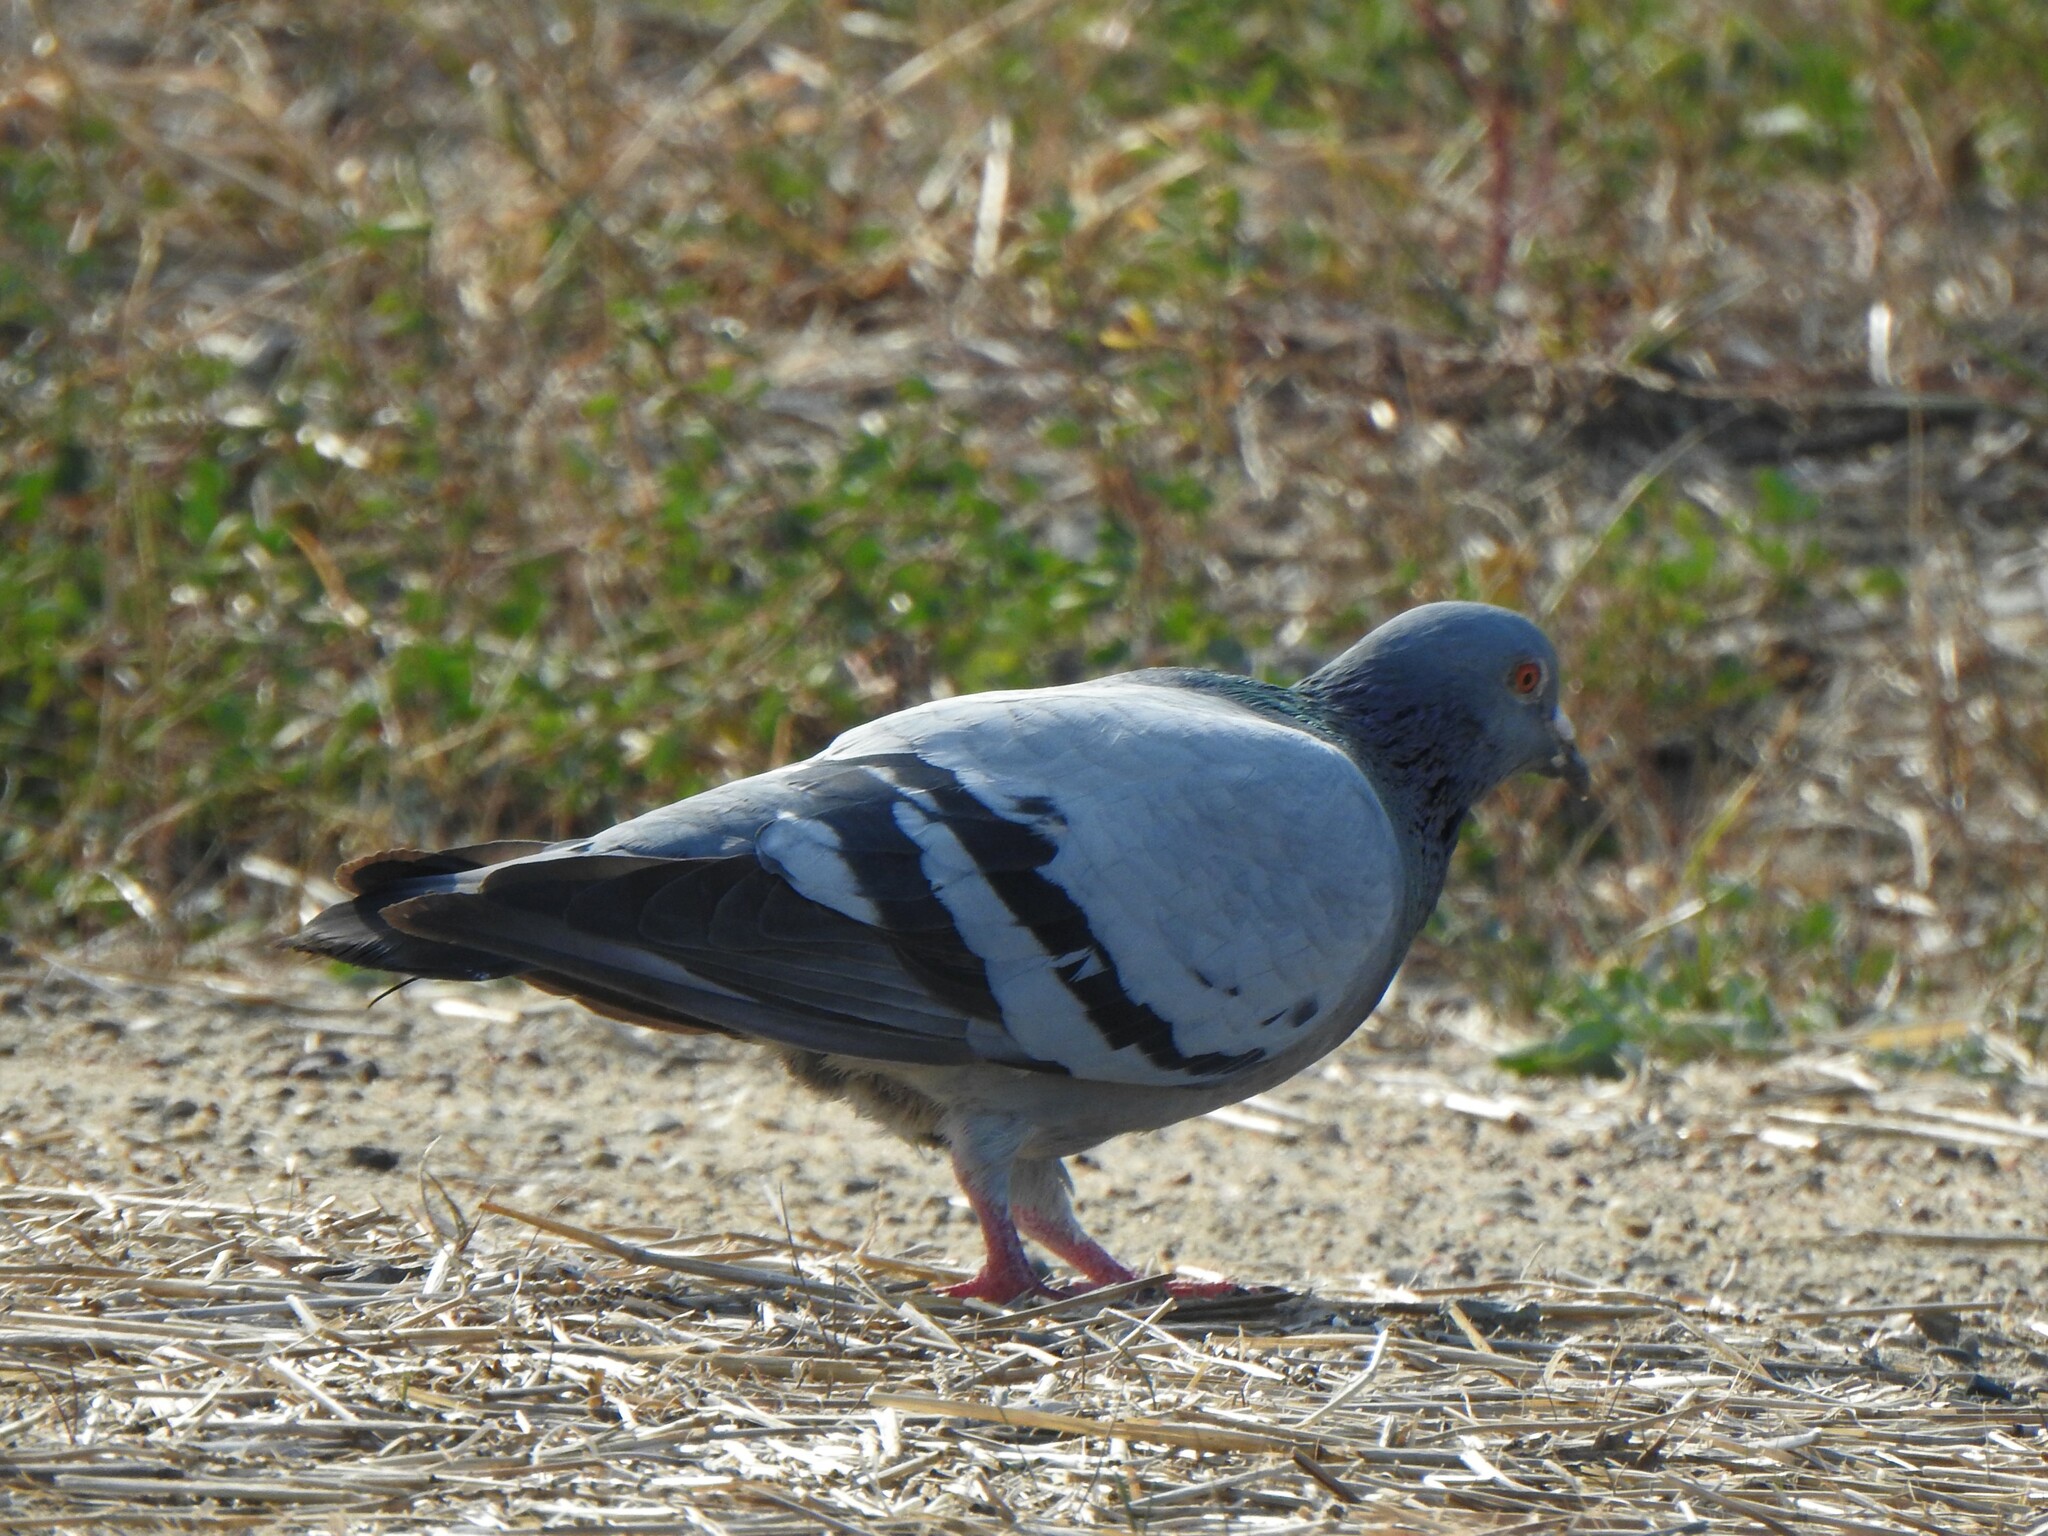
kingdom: Animalia
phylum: Chordata
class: Aves
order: Columbiformes
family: Columbidae
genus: Columba
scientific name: Columba livia
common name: Rock pigeon
